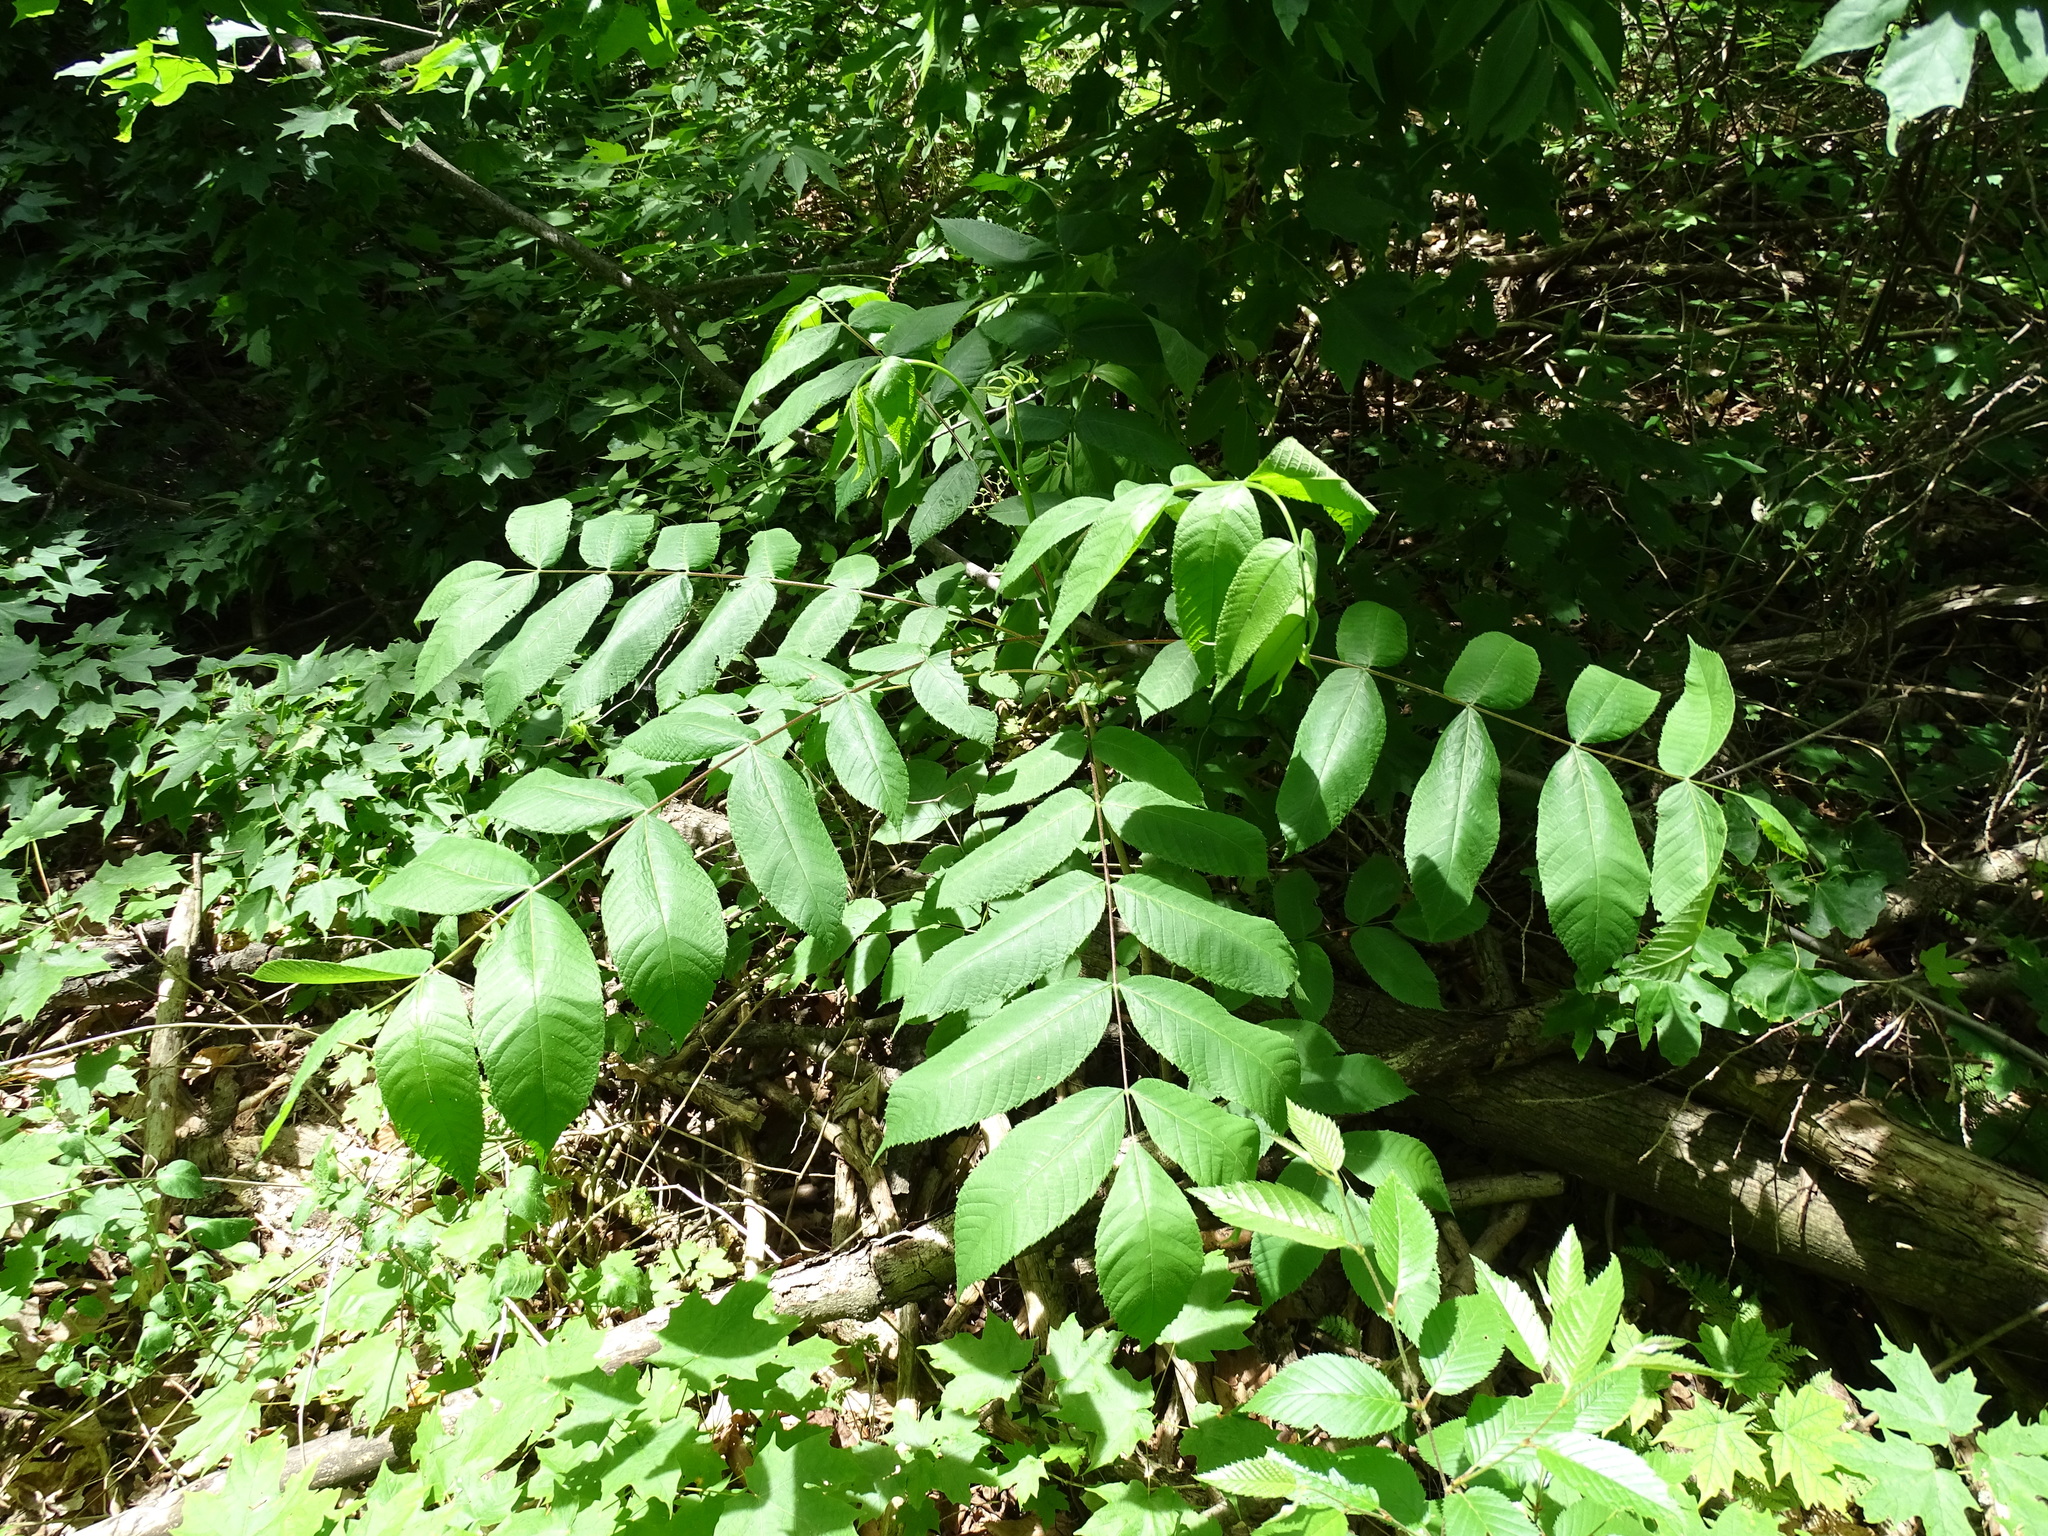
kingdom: Plantae
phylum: Tracheophyta
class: Magnoliopsida
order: Fagales
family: Juglandaceae
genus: Juglans
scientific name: Juglans cinerea
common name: Butternut
